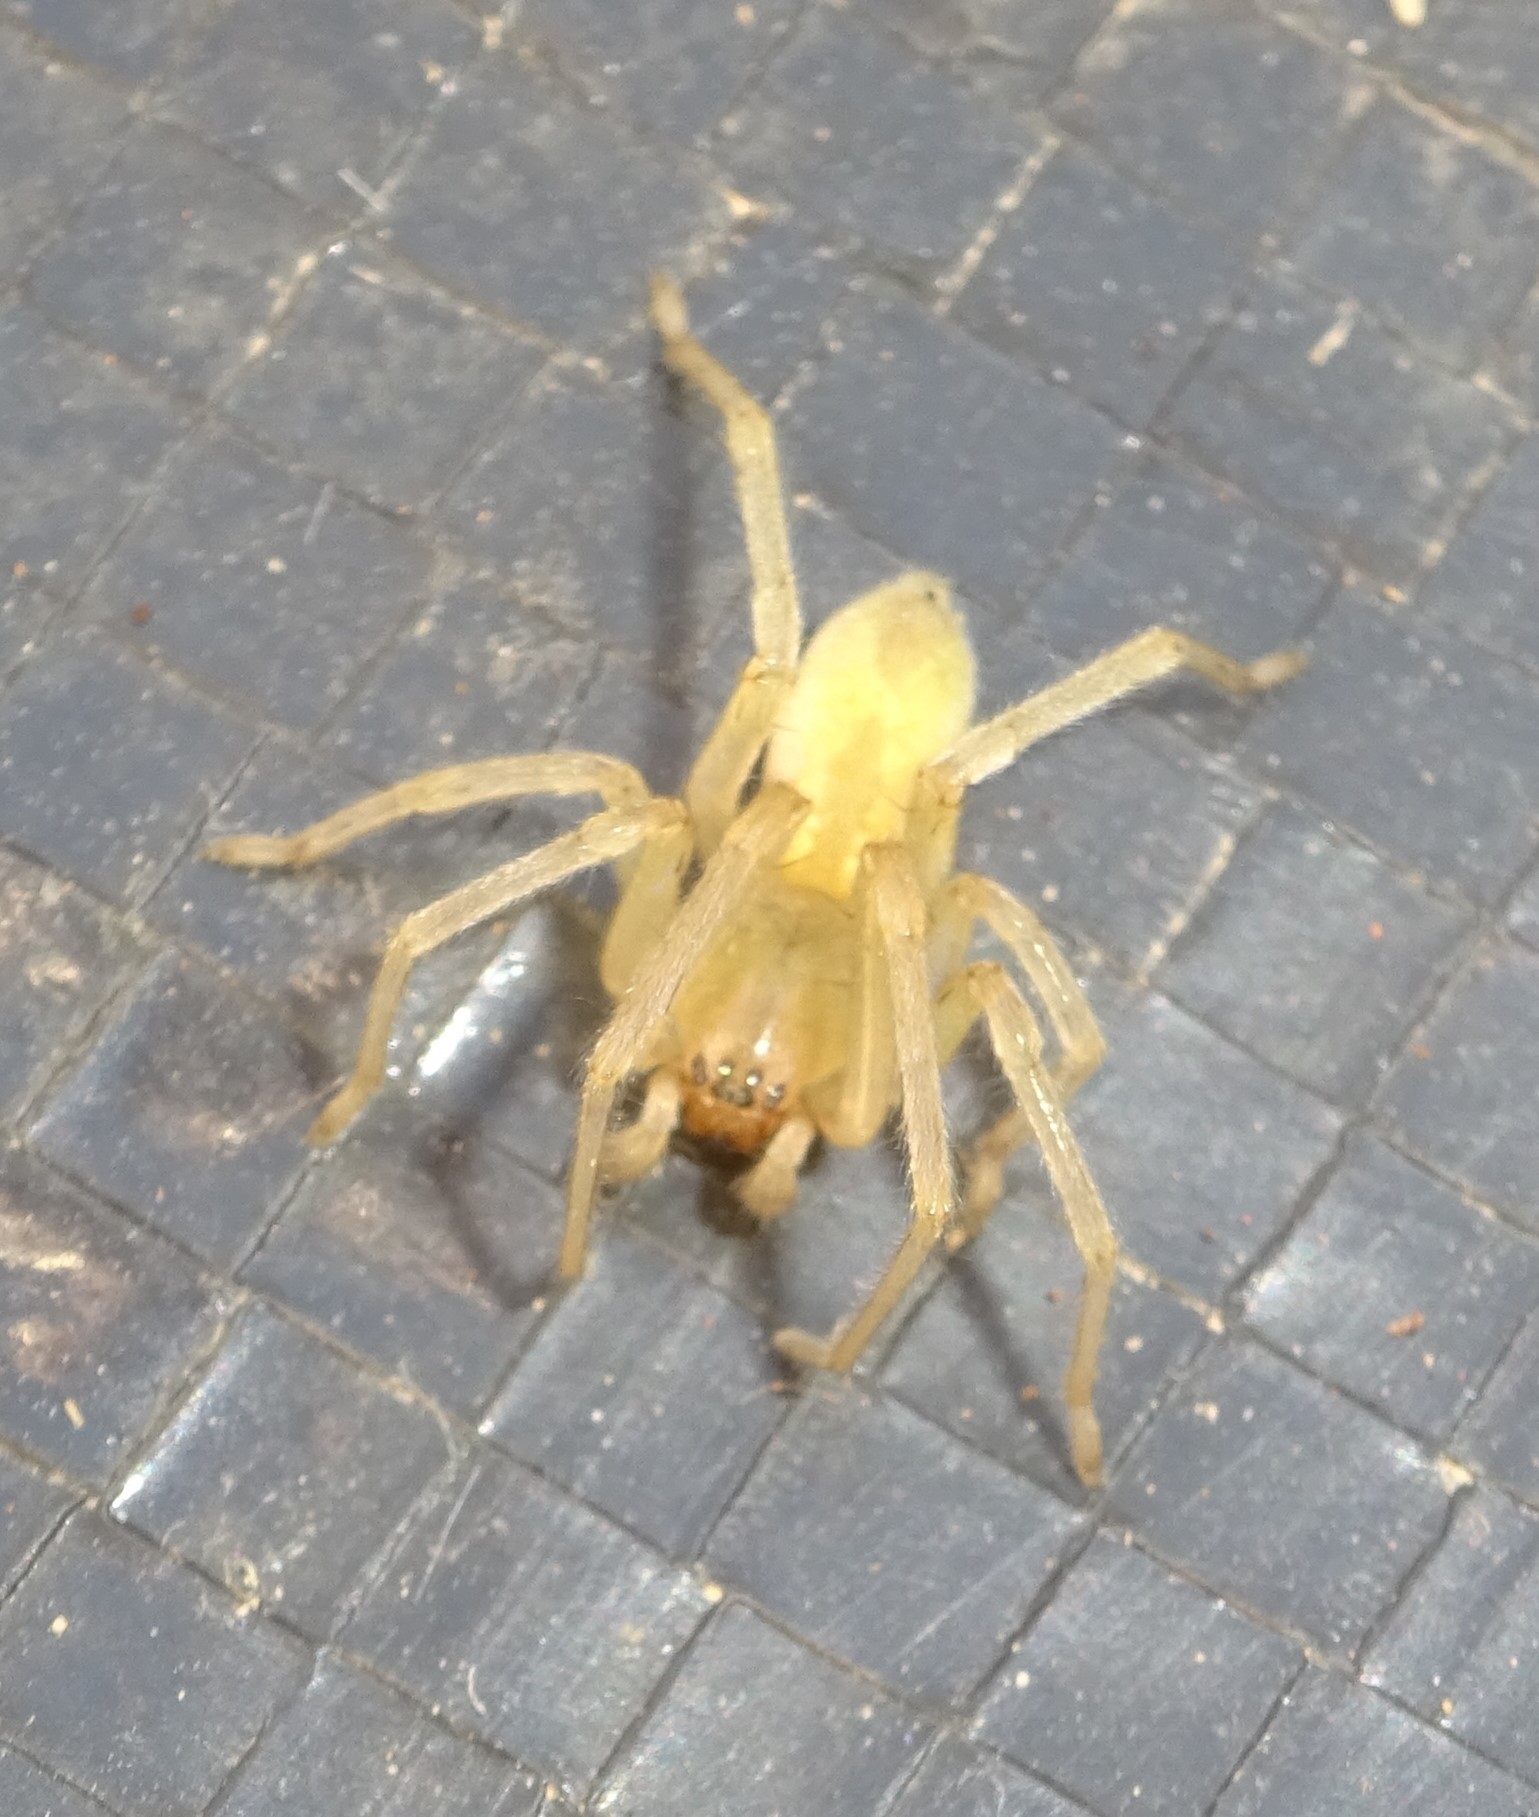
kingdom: Animalia
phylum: Arthropoda
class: Arachnida
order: Araneae
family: Cheiracanthiidae
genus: Cheiracanthium
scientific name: Cheiracanthium
